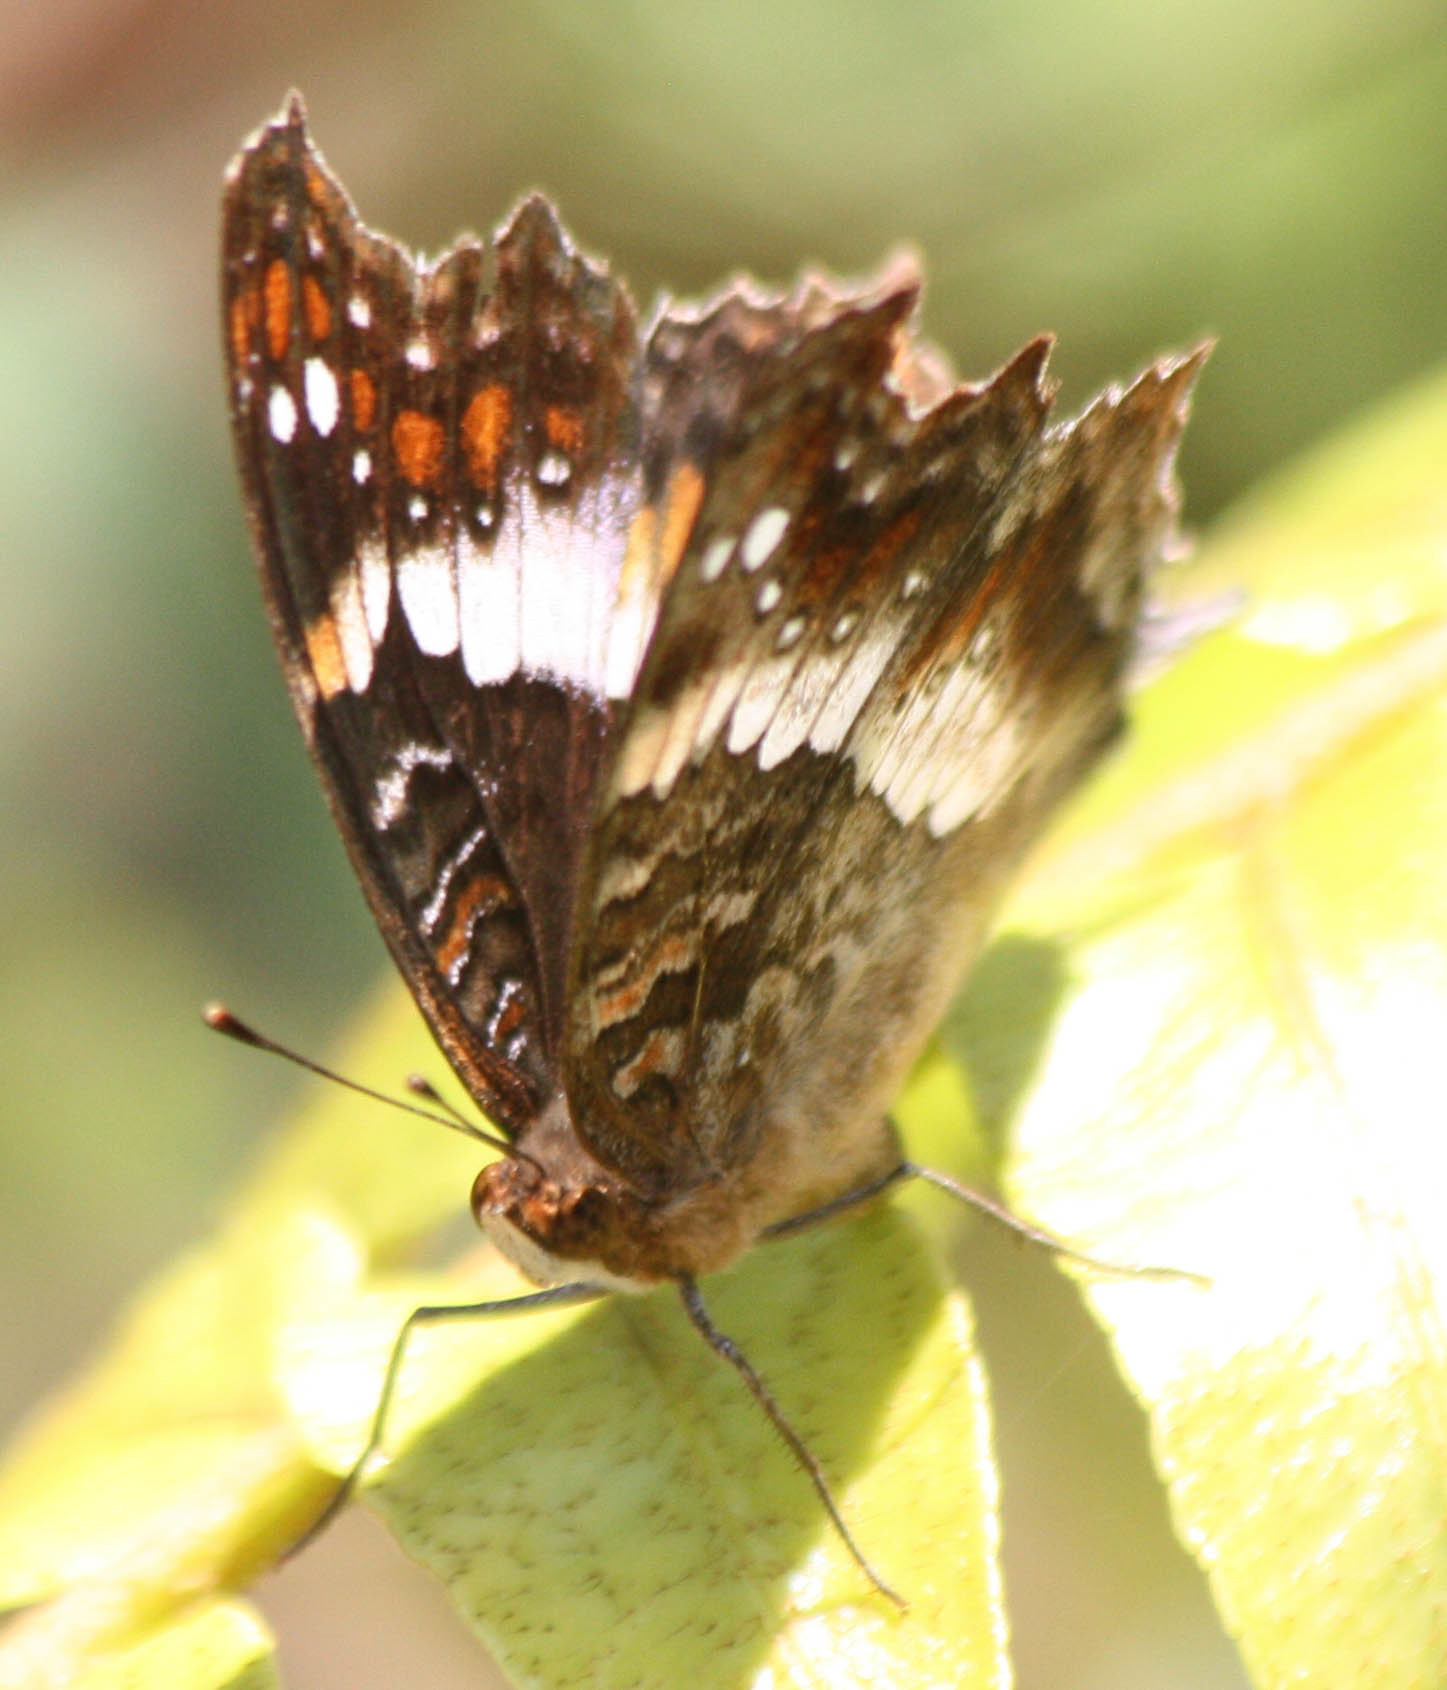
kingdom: Animalia
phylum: Arthropoda
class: Insecta
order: Lepidoptera
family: Nymphalidae
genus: Precis
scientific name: Precis andremiaja
